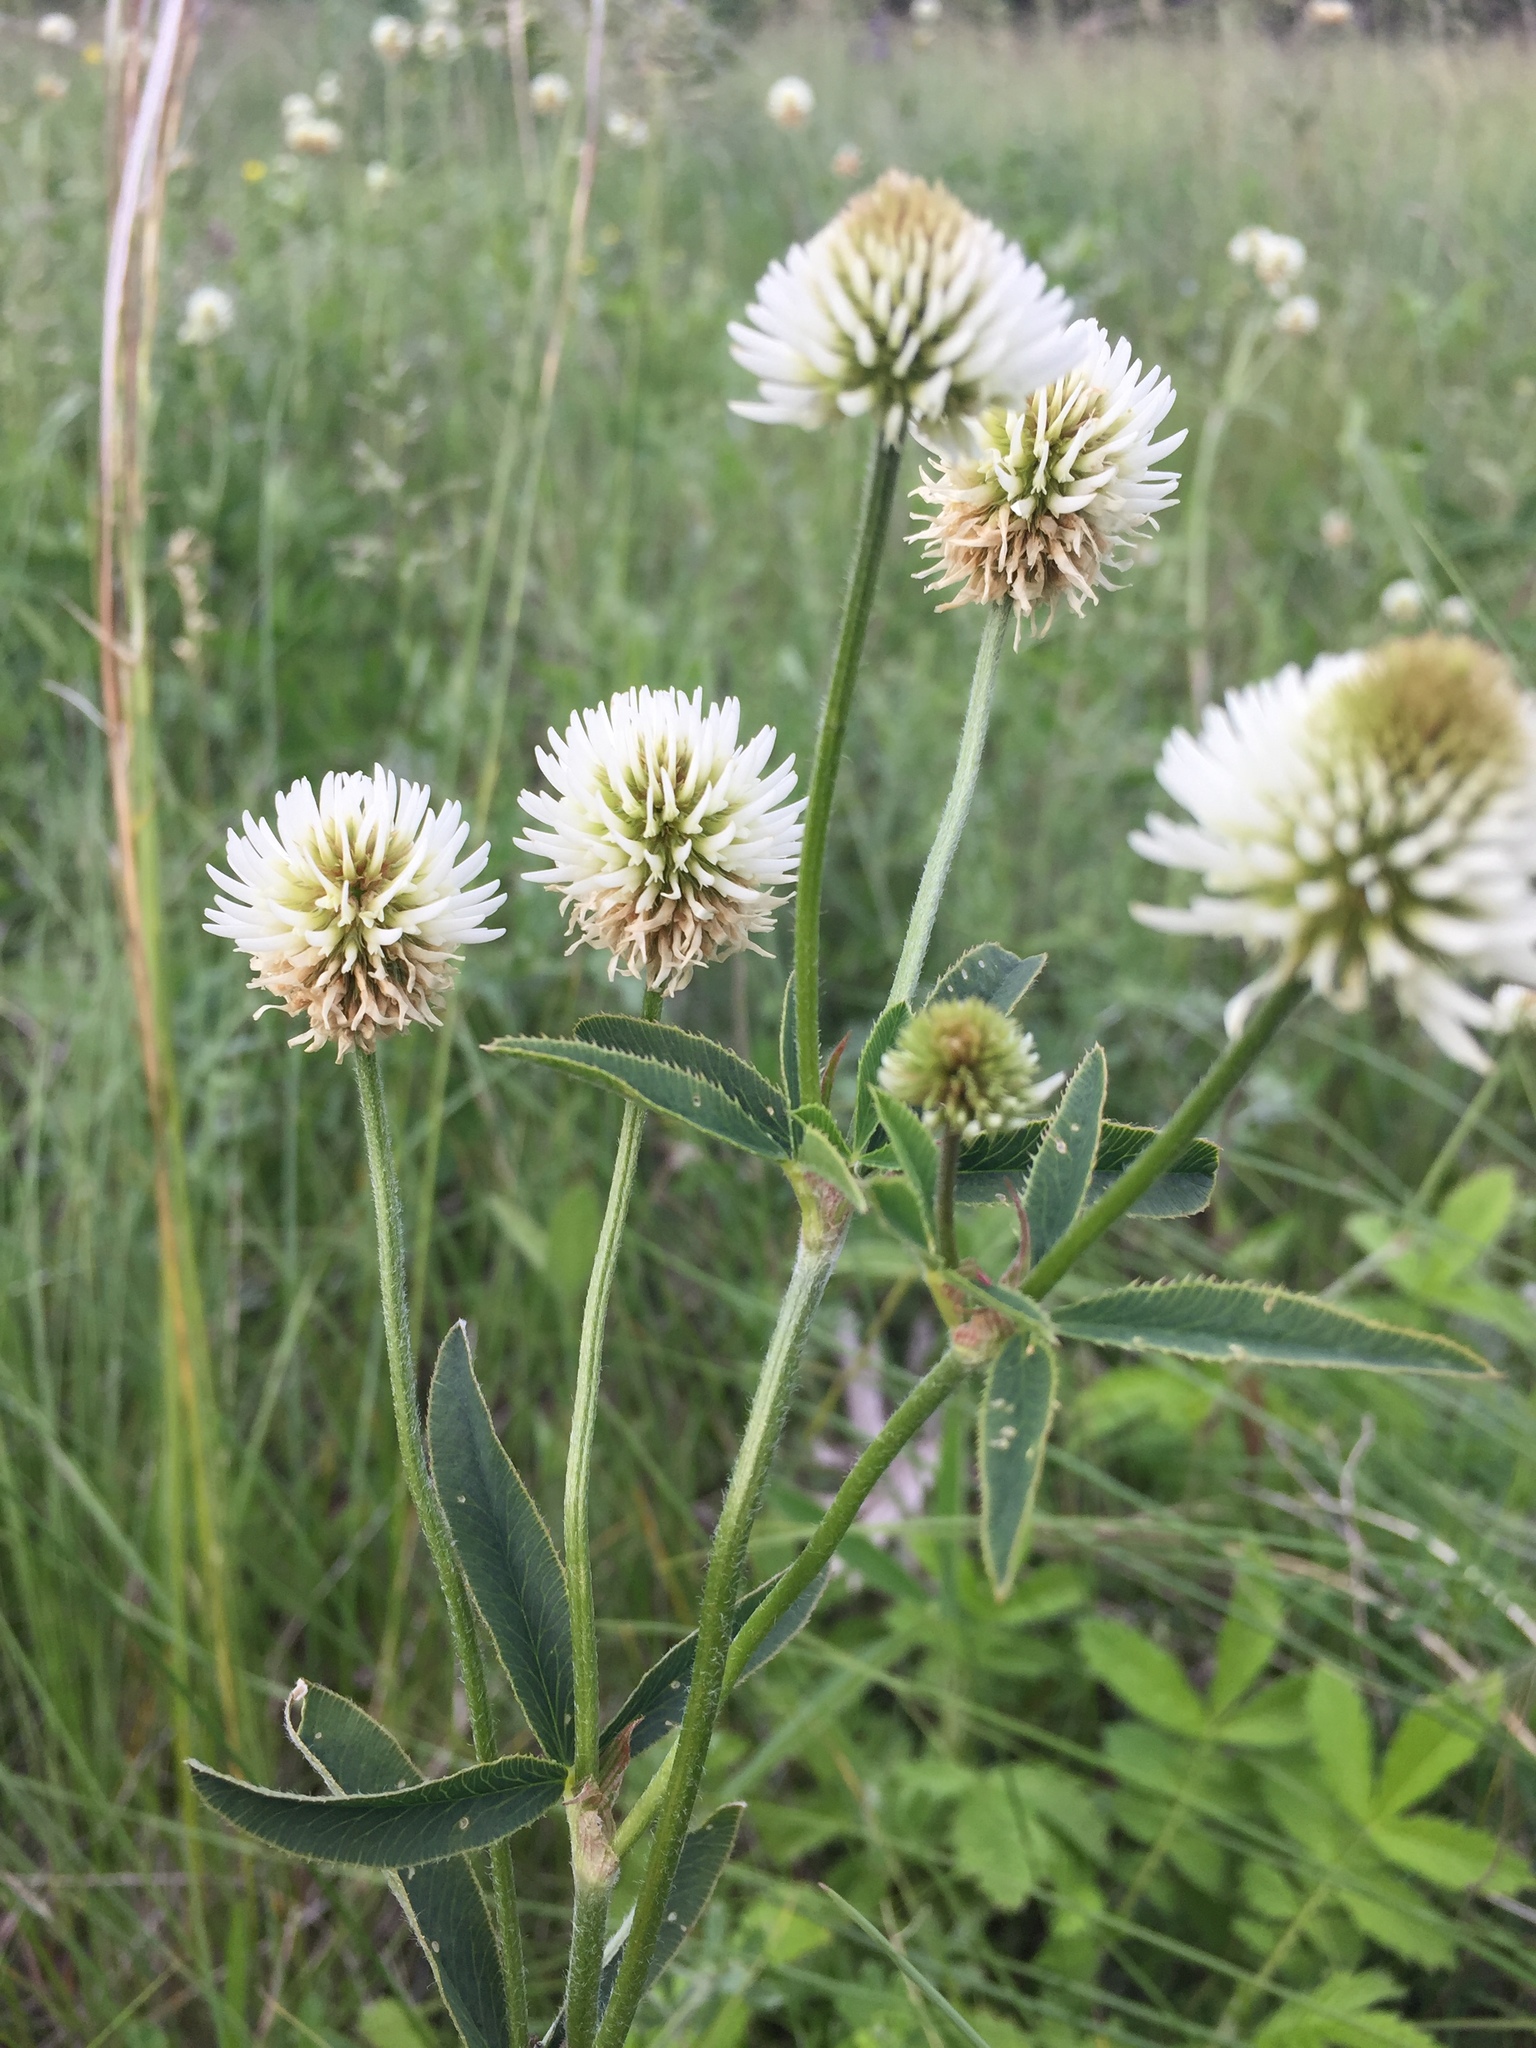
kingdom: Plantae
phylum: Tracheophyta
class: Magnoliopsida
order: Fabales
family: Fabaceae
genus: Trifolium
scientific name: Trifolium montanum
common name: Mountain clover
